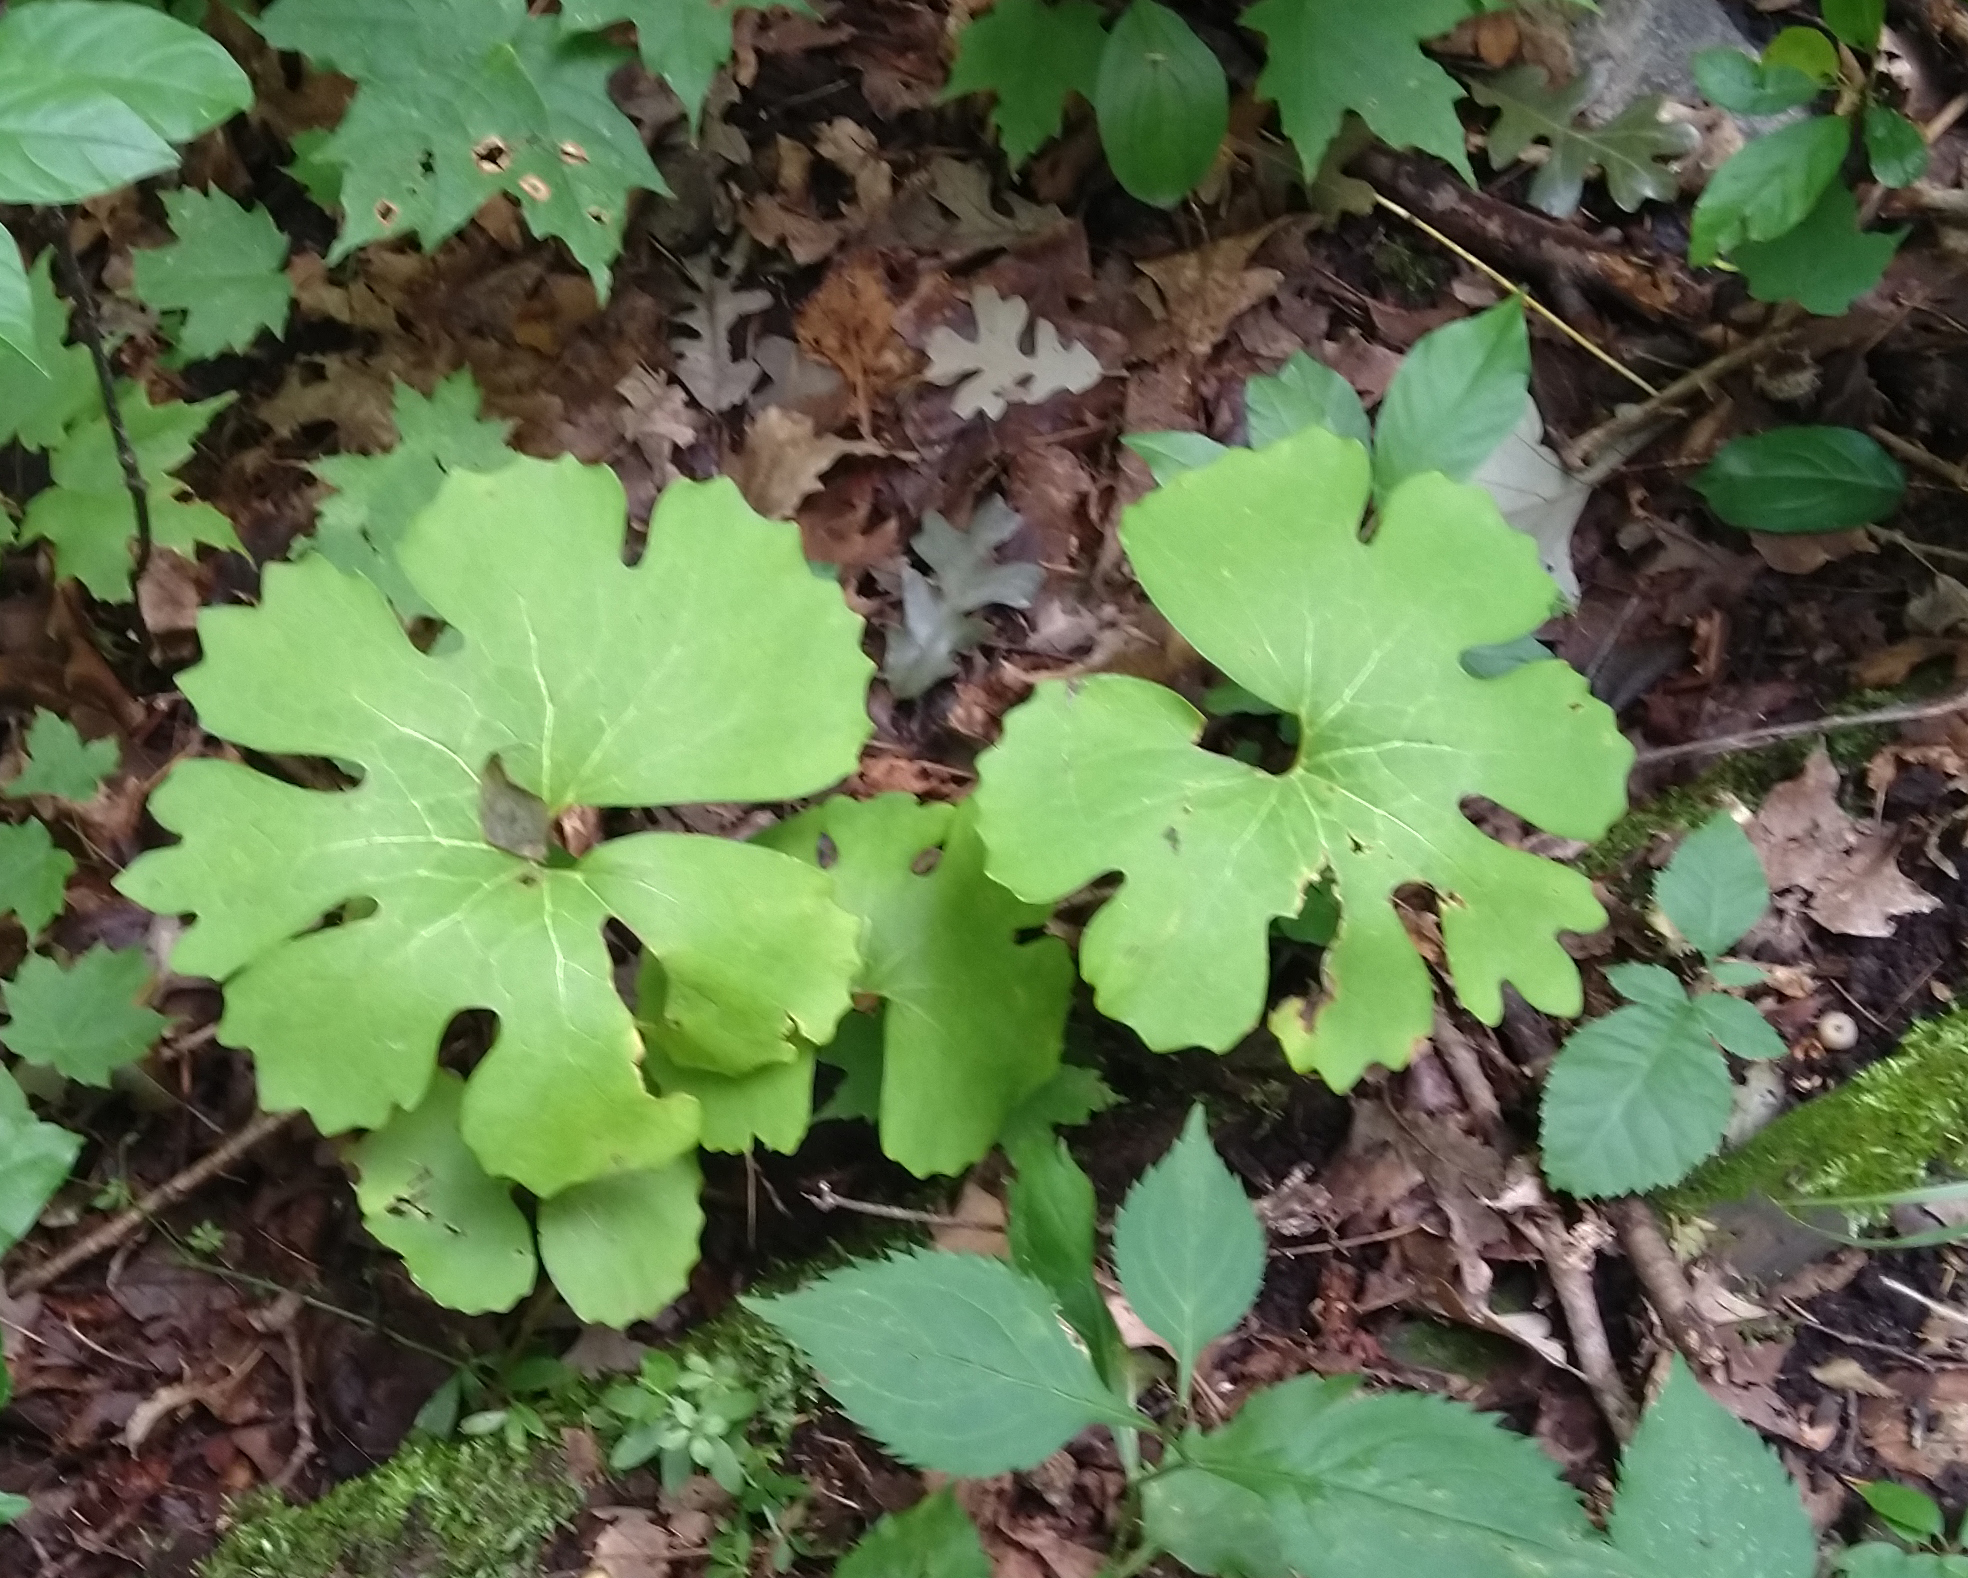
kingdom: Plantae
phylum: Tracheophyta
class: Magnoliopsida
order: Ranunculales
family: Papaveraceae
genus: Sanguinaria
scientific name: Sanguinaria canadensis
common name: Bloodroot
